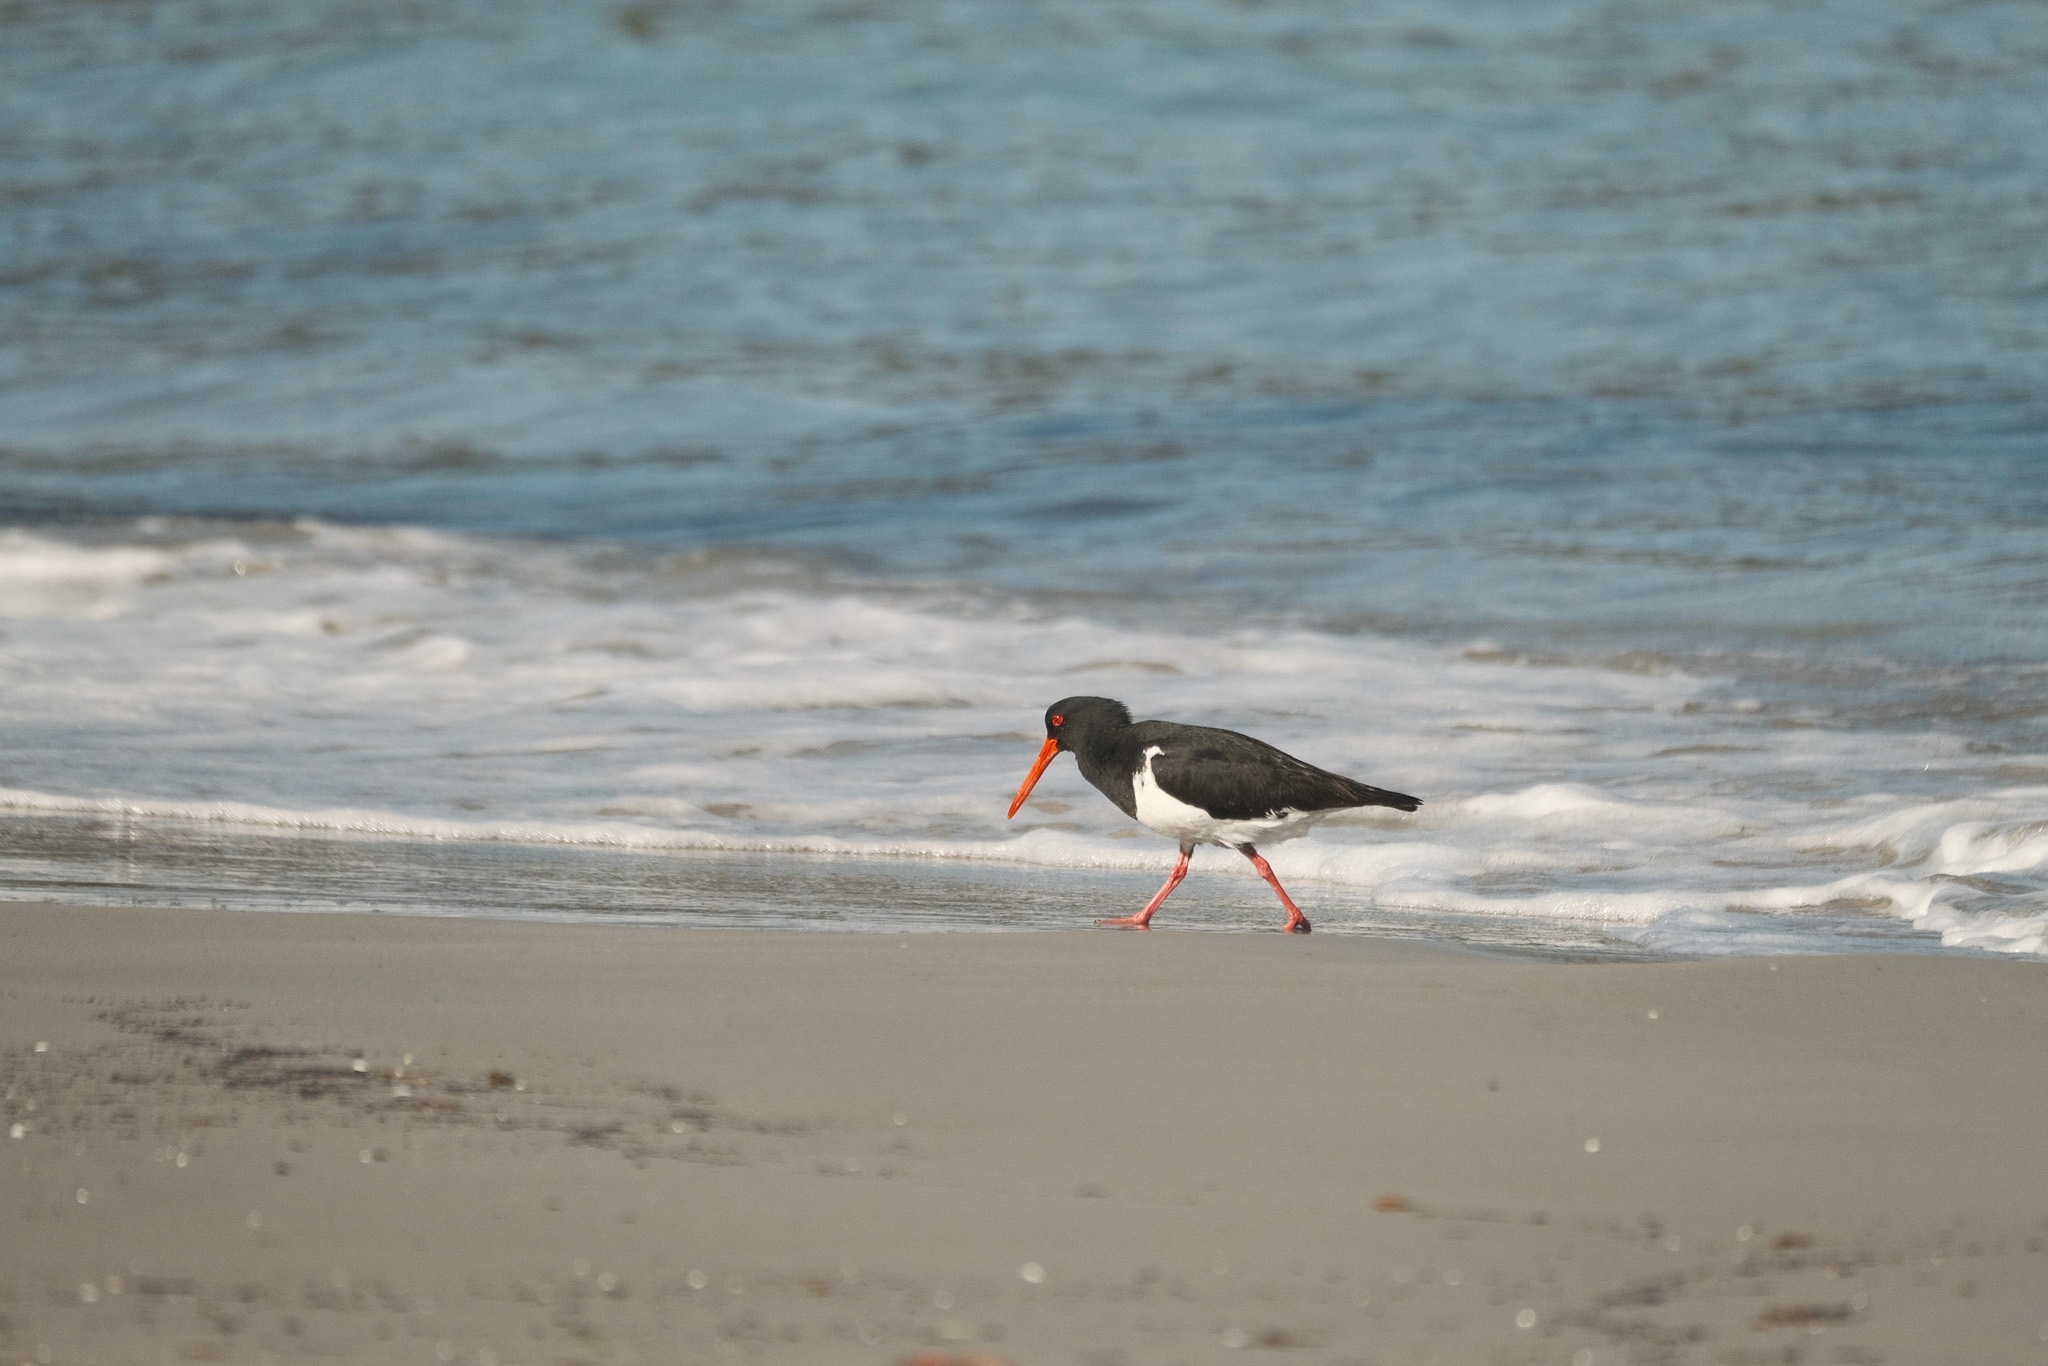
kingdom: Animalia
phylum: Chordata
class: Aves
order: Charadriiformes
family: Haematopodidae
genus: Haematopus
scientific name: Haematopus longirostris
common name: Pied oystercatcher
